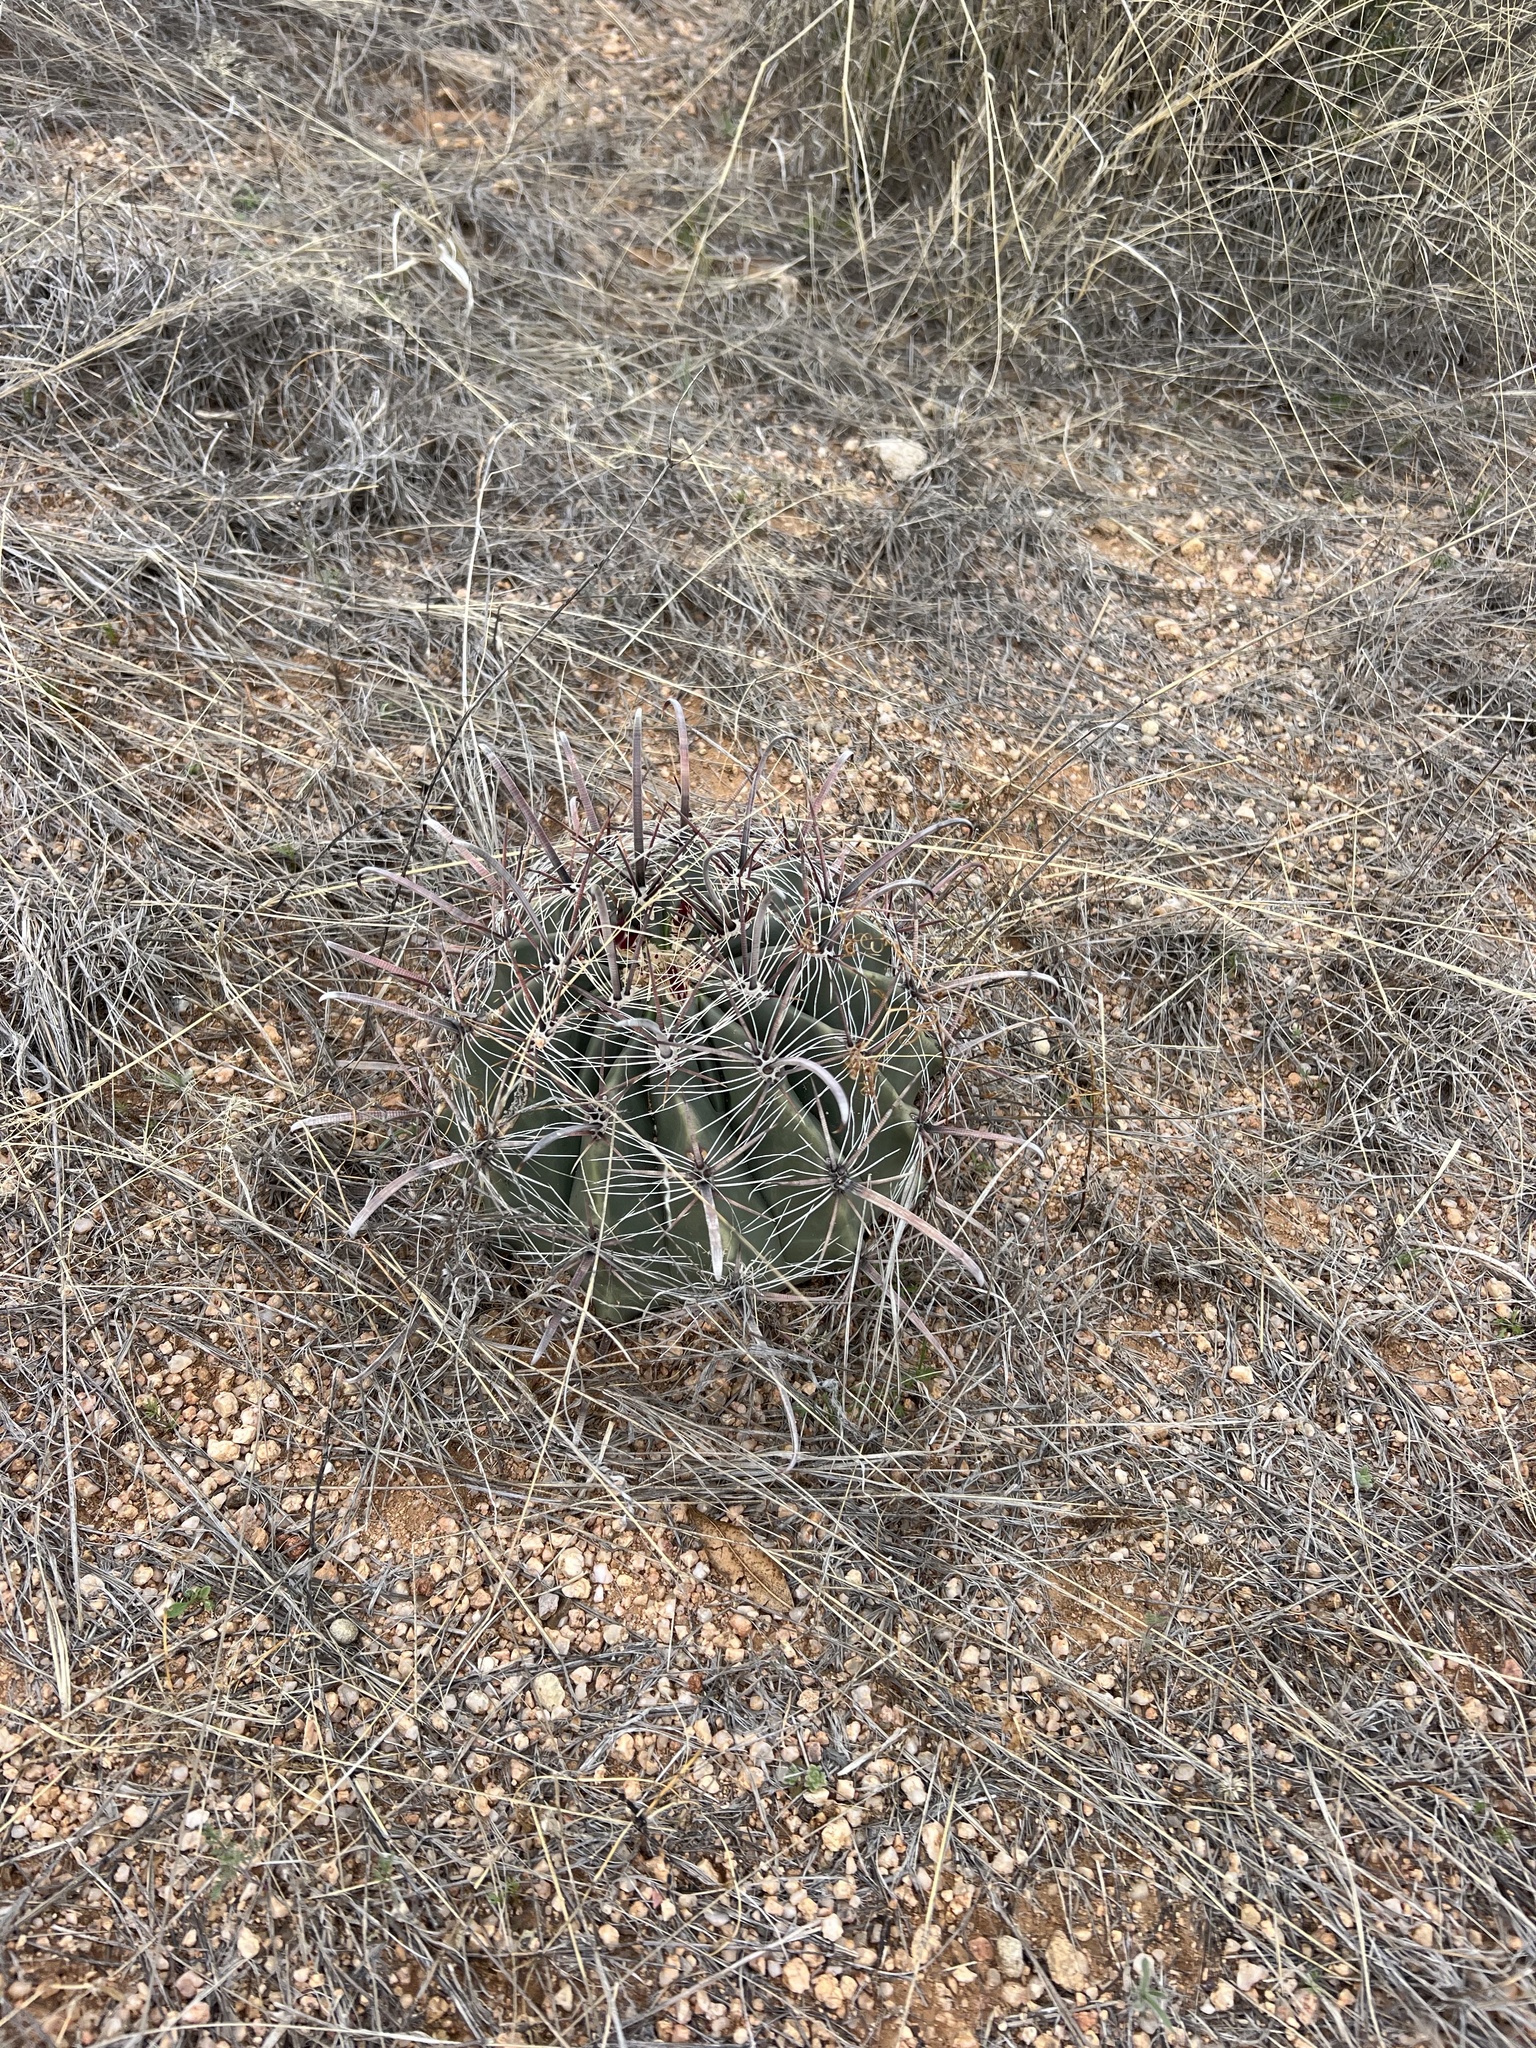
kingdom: Plantae
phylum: Tracheophyta
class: Magnoliopsida
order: Caryophyllales
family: Cactaceae
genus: Ferocactus
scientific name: Ferocactus wislizeni
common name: Candy barrel cactus
